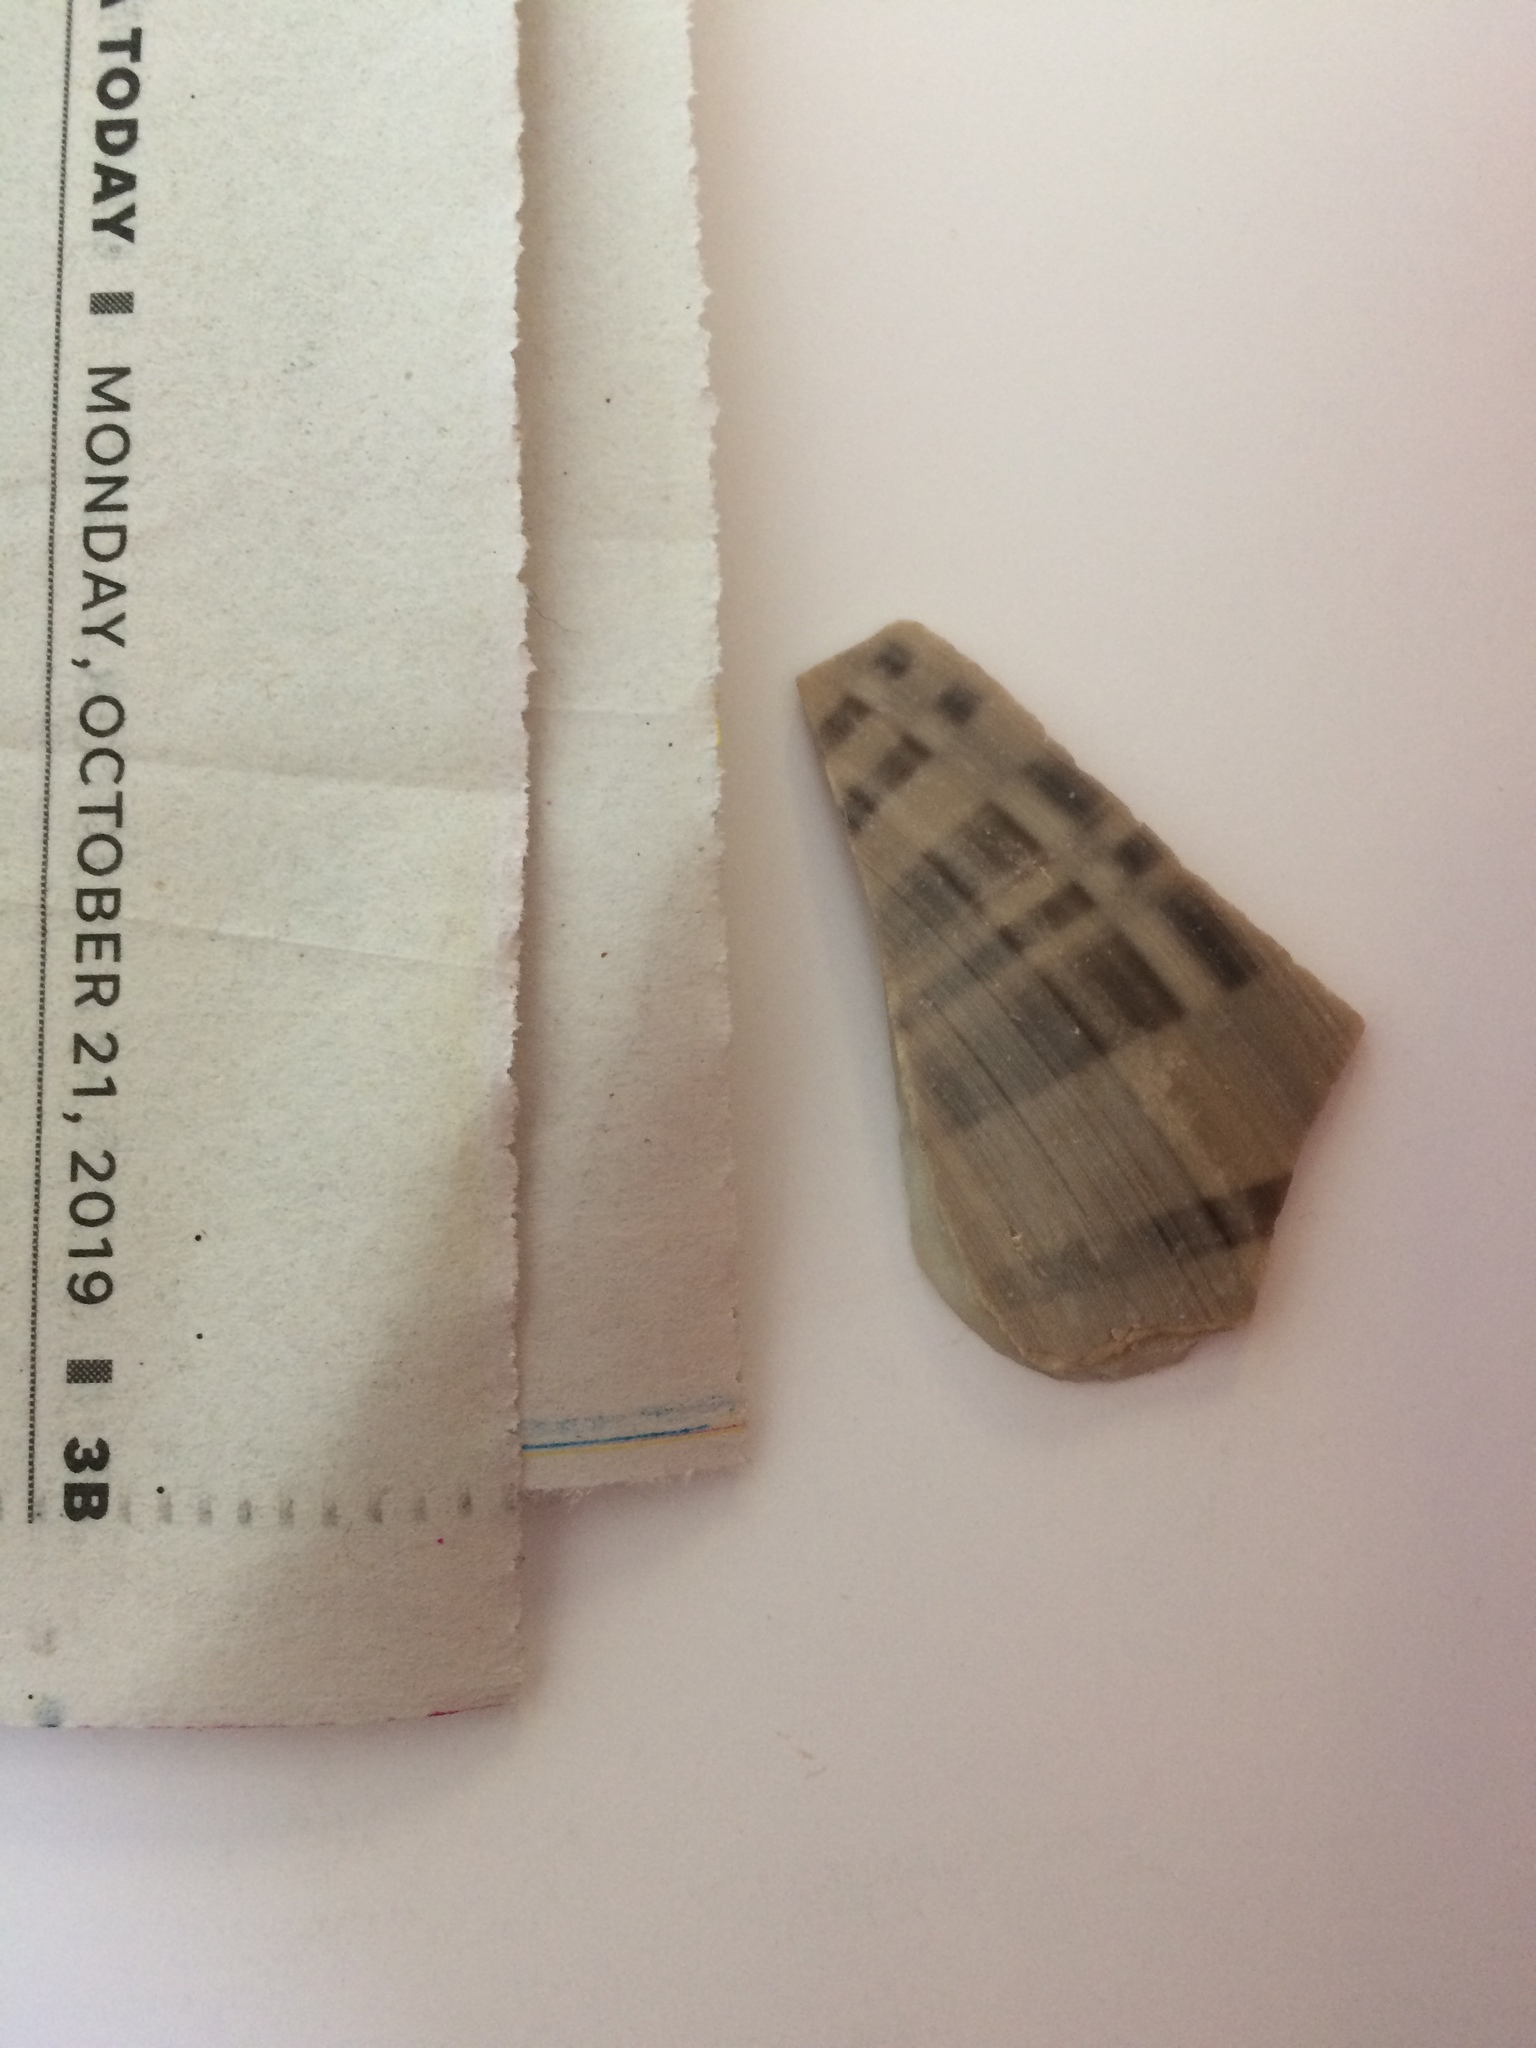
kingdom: Animalia
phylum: Mollusca
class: Bivalvia
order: Venerida
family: Veneridae
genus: Macrocallista
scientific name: Macrocallista nimbosa
